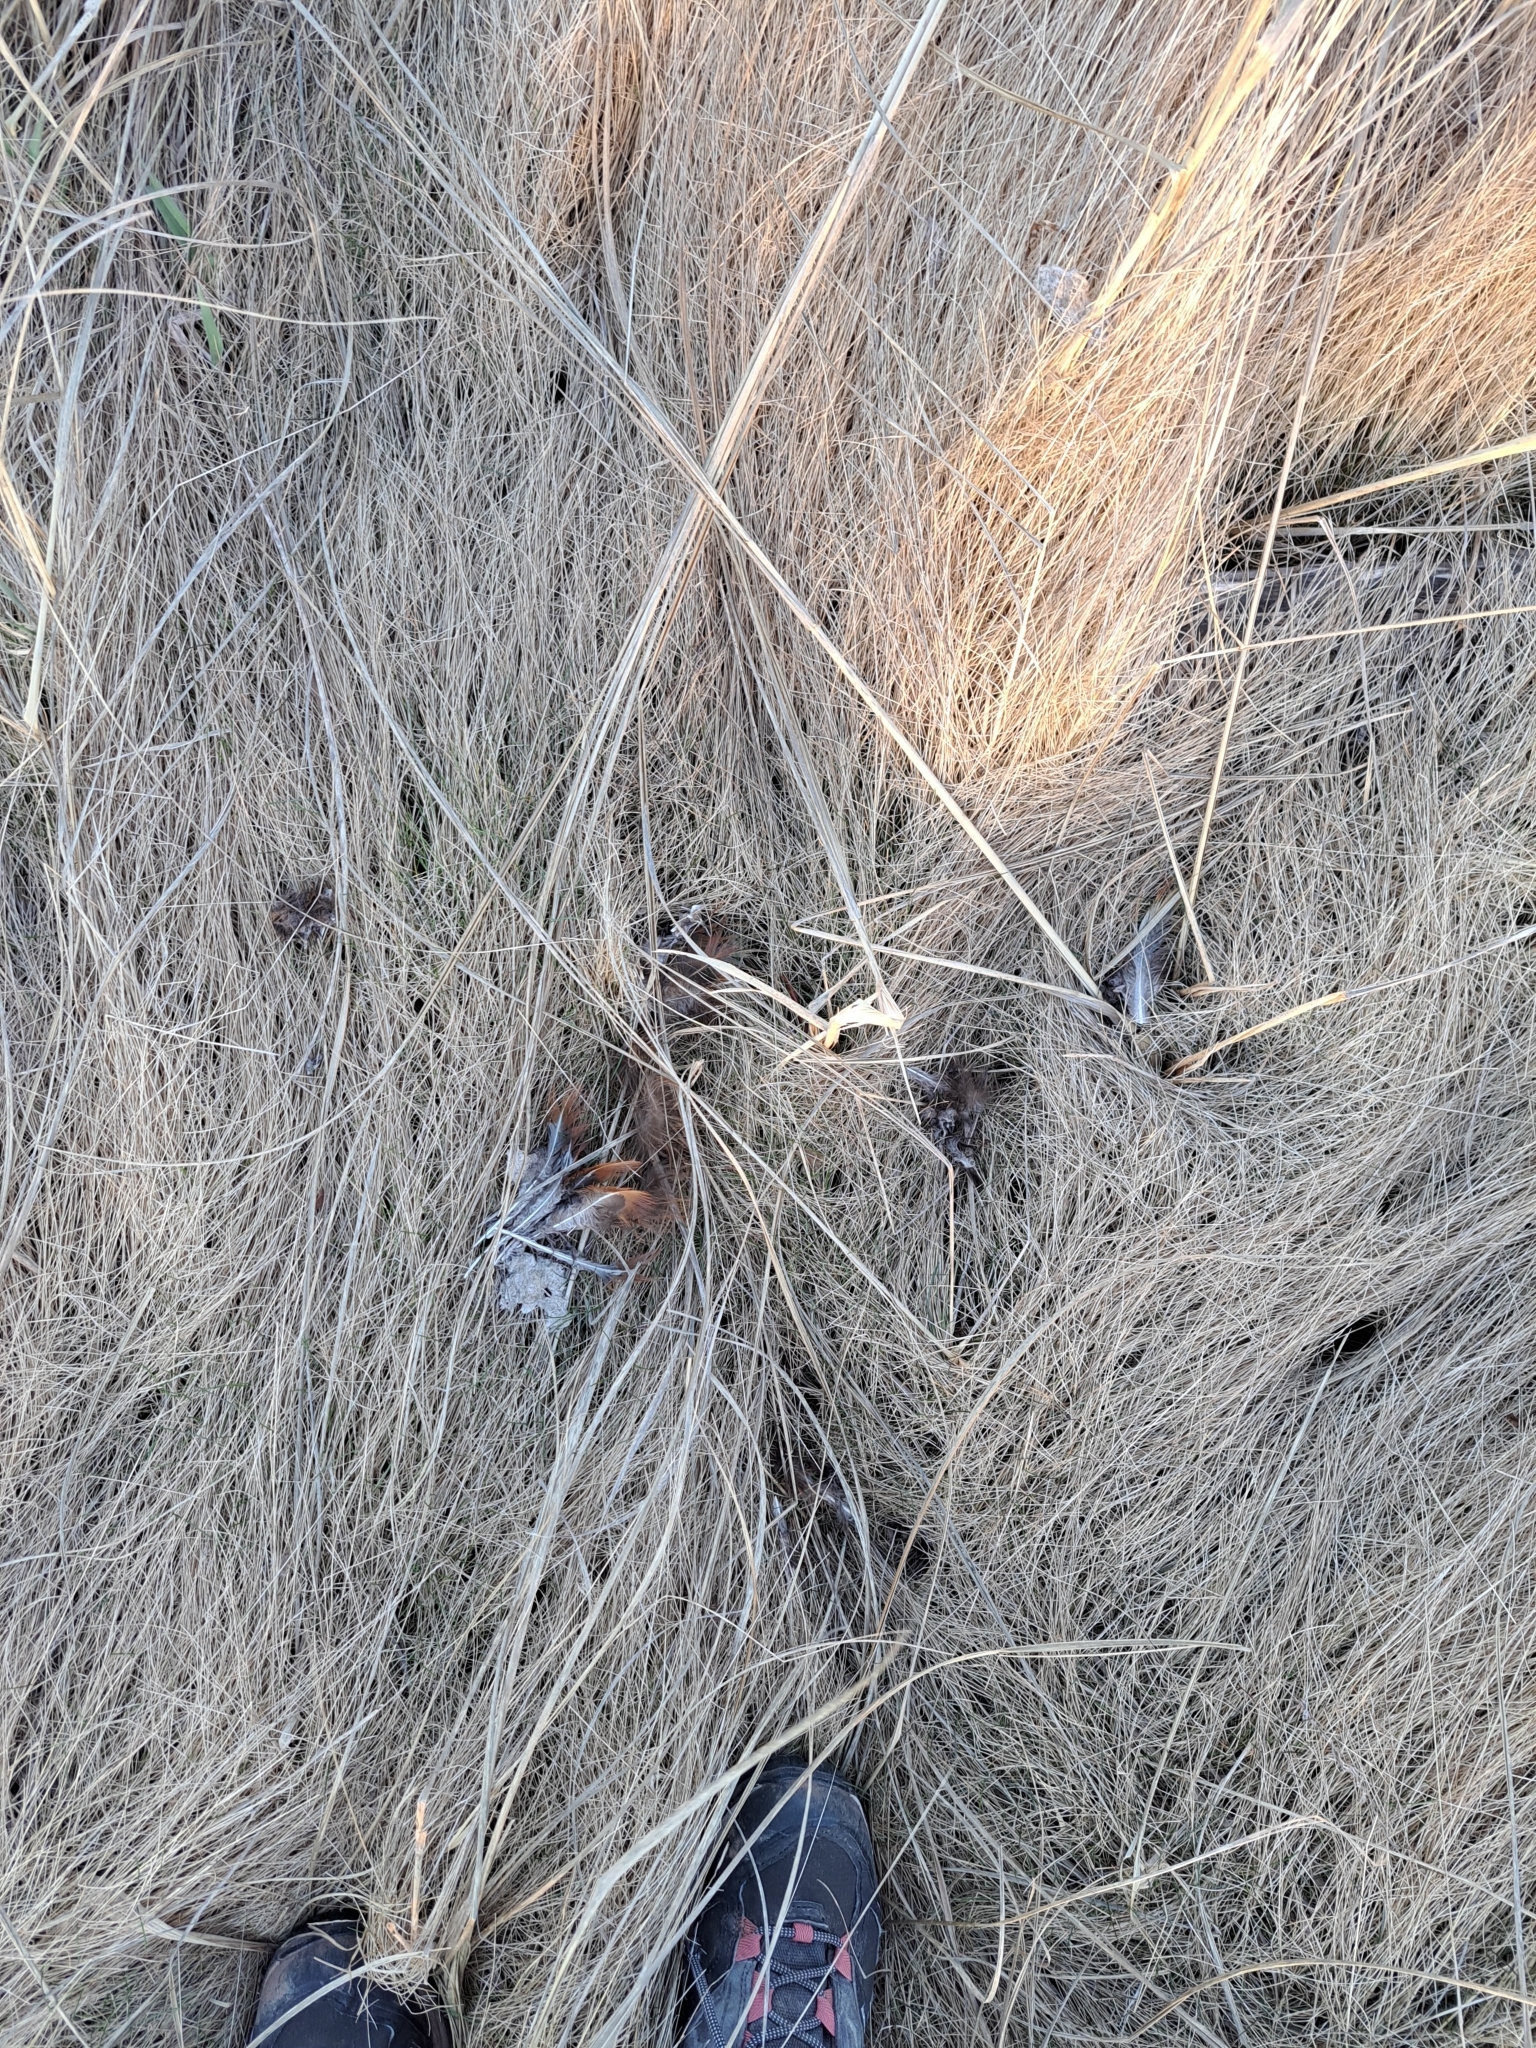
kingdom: Animalia
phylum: Chordata
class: Aves
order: Galliformes
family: Phasianidae
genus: Phasianus
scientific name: Phasianus colchicus
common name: Common pheasant
